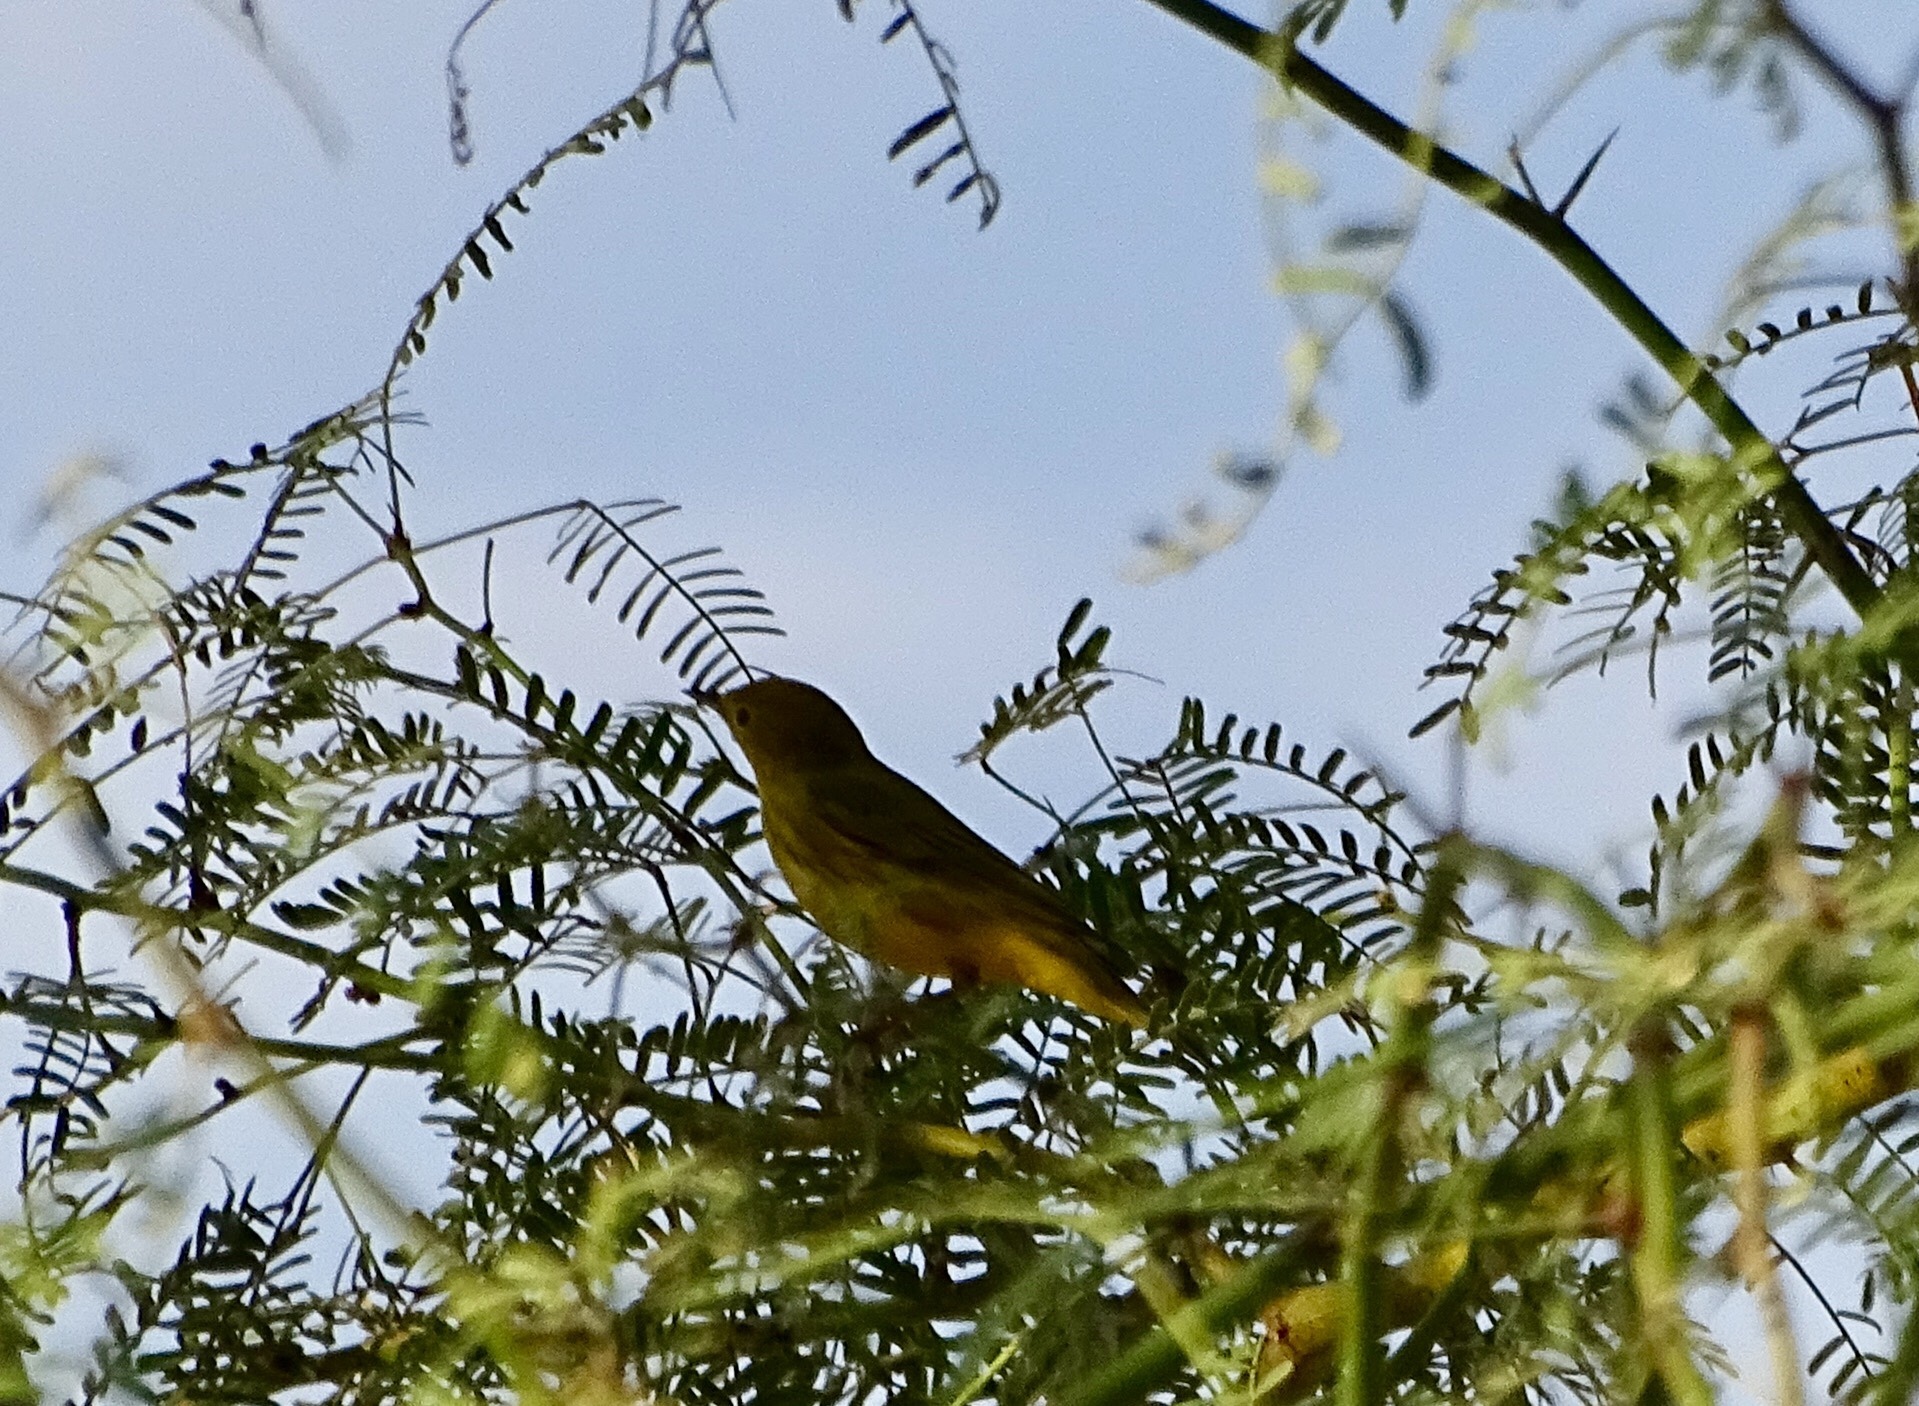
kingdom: Animalia
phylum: Chordata
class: Aves
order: Passeriformes
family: Parulidae
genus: Setophaga
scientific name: Setophaga petechia
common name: Yellow warbler
